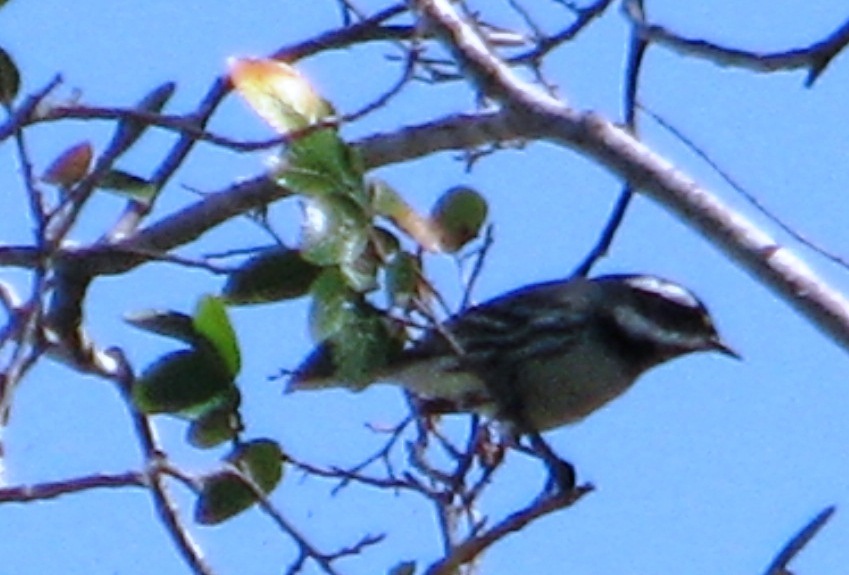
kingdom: Animalia
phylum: Chordata
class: Aves
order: Passeriformes
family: Parulidae
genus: Setophaga
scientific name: Setophaga nigrescens
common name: Black-throated gray warbler
